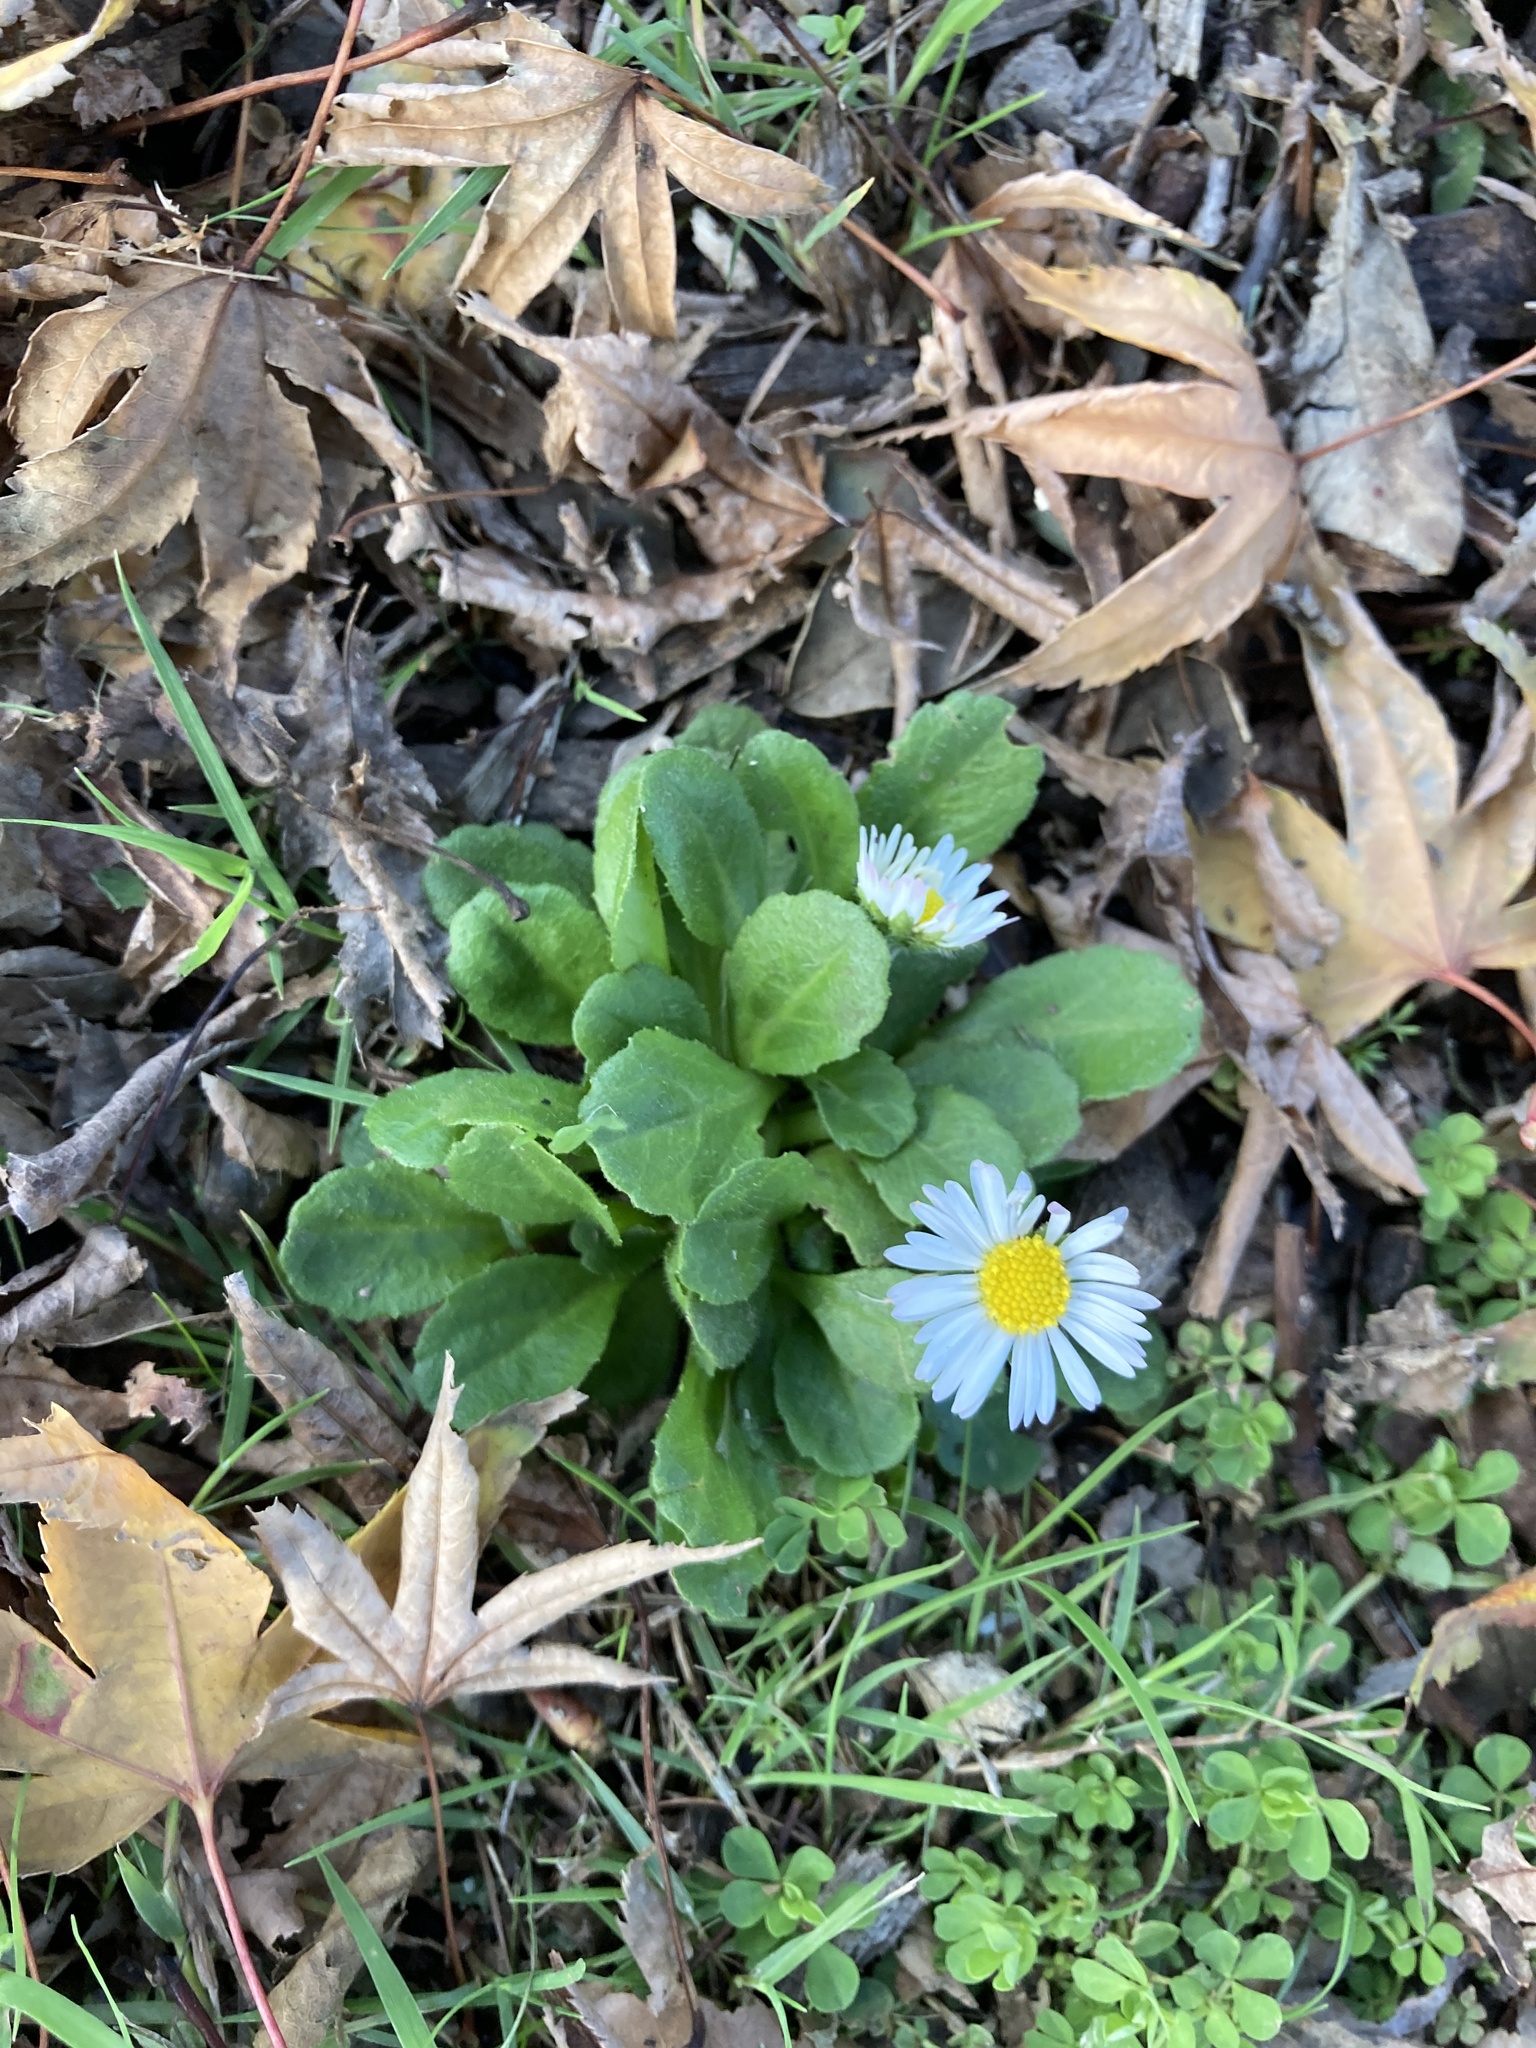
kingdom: Plantae
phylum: Tracheophyta
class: Magnoliopsida
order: Asterales
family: Asteraceae
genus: Bellis
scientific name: Bellis perennis
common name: Lawndaisy
